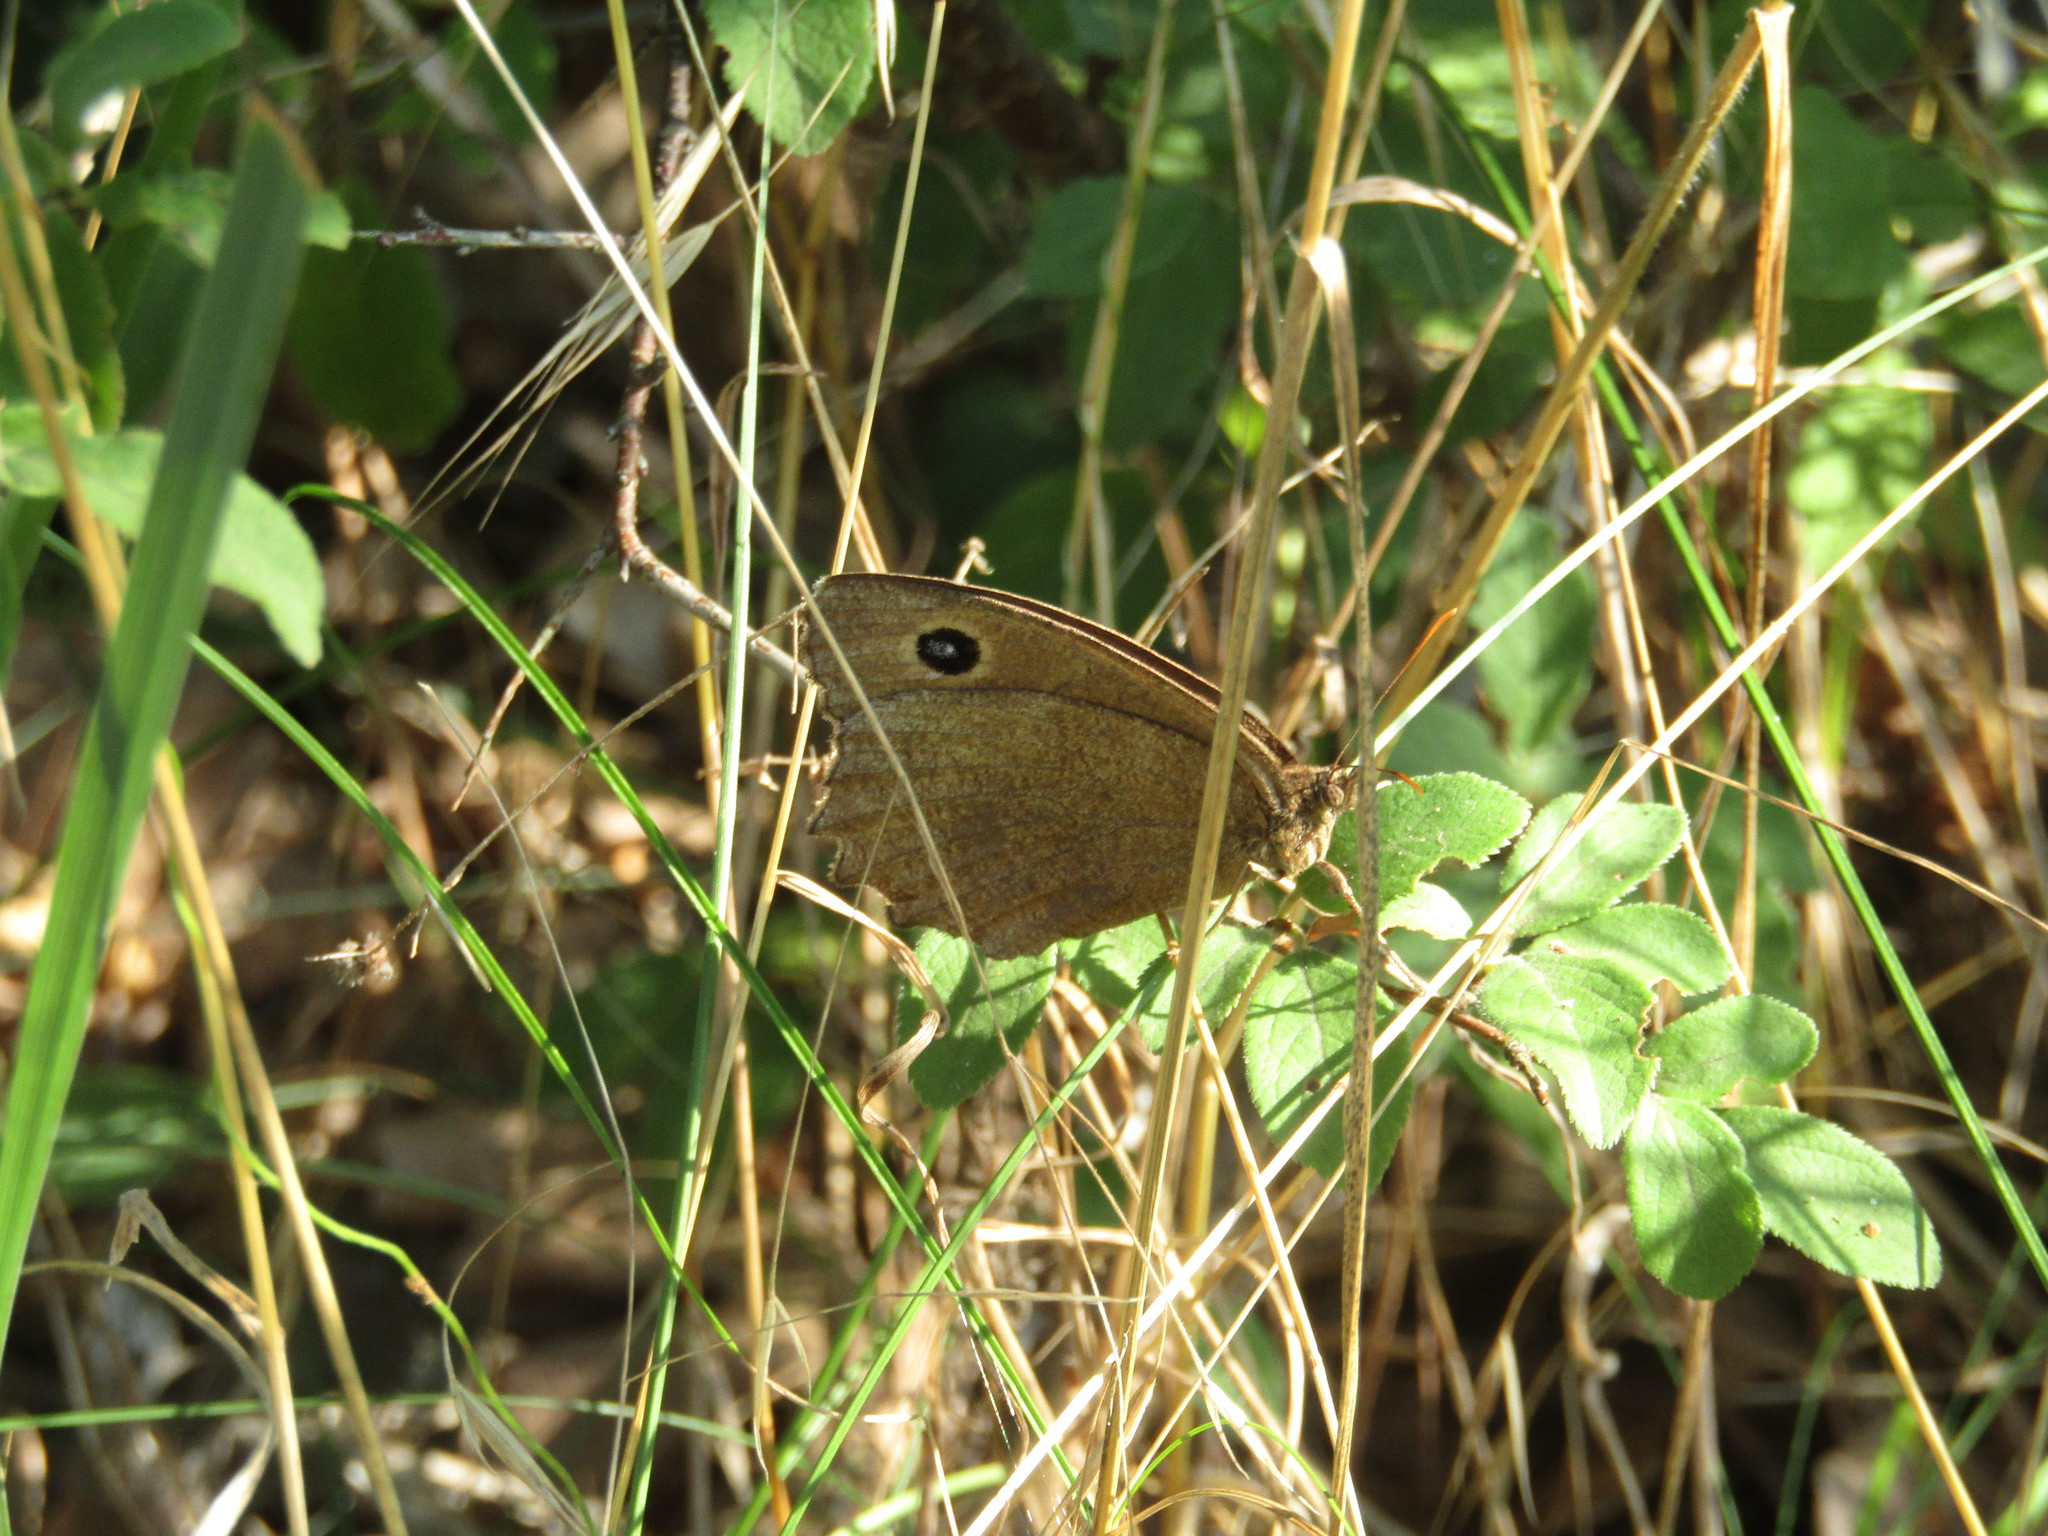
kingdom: Animalia
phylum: Arthropoda
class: Insecta
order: Lepidoptera
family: Nymphalidae
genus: Minois
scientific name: Minois dryas
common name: Dryad
